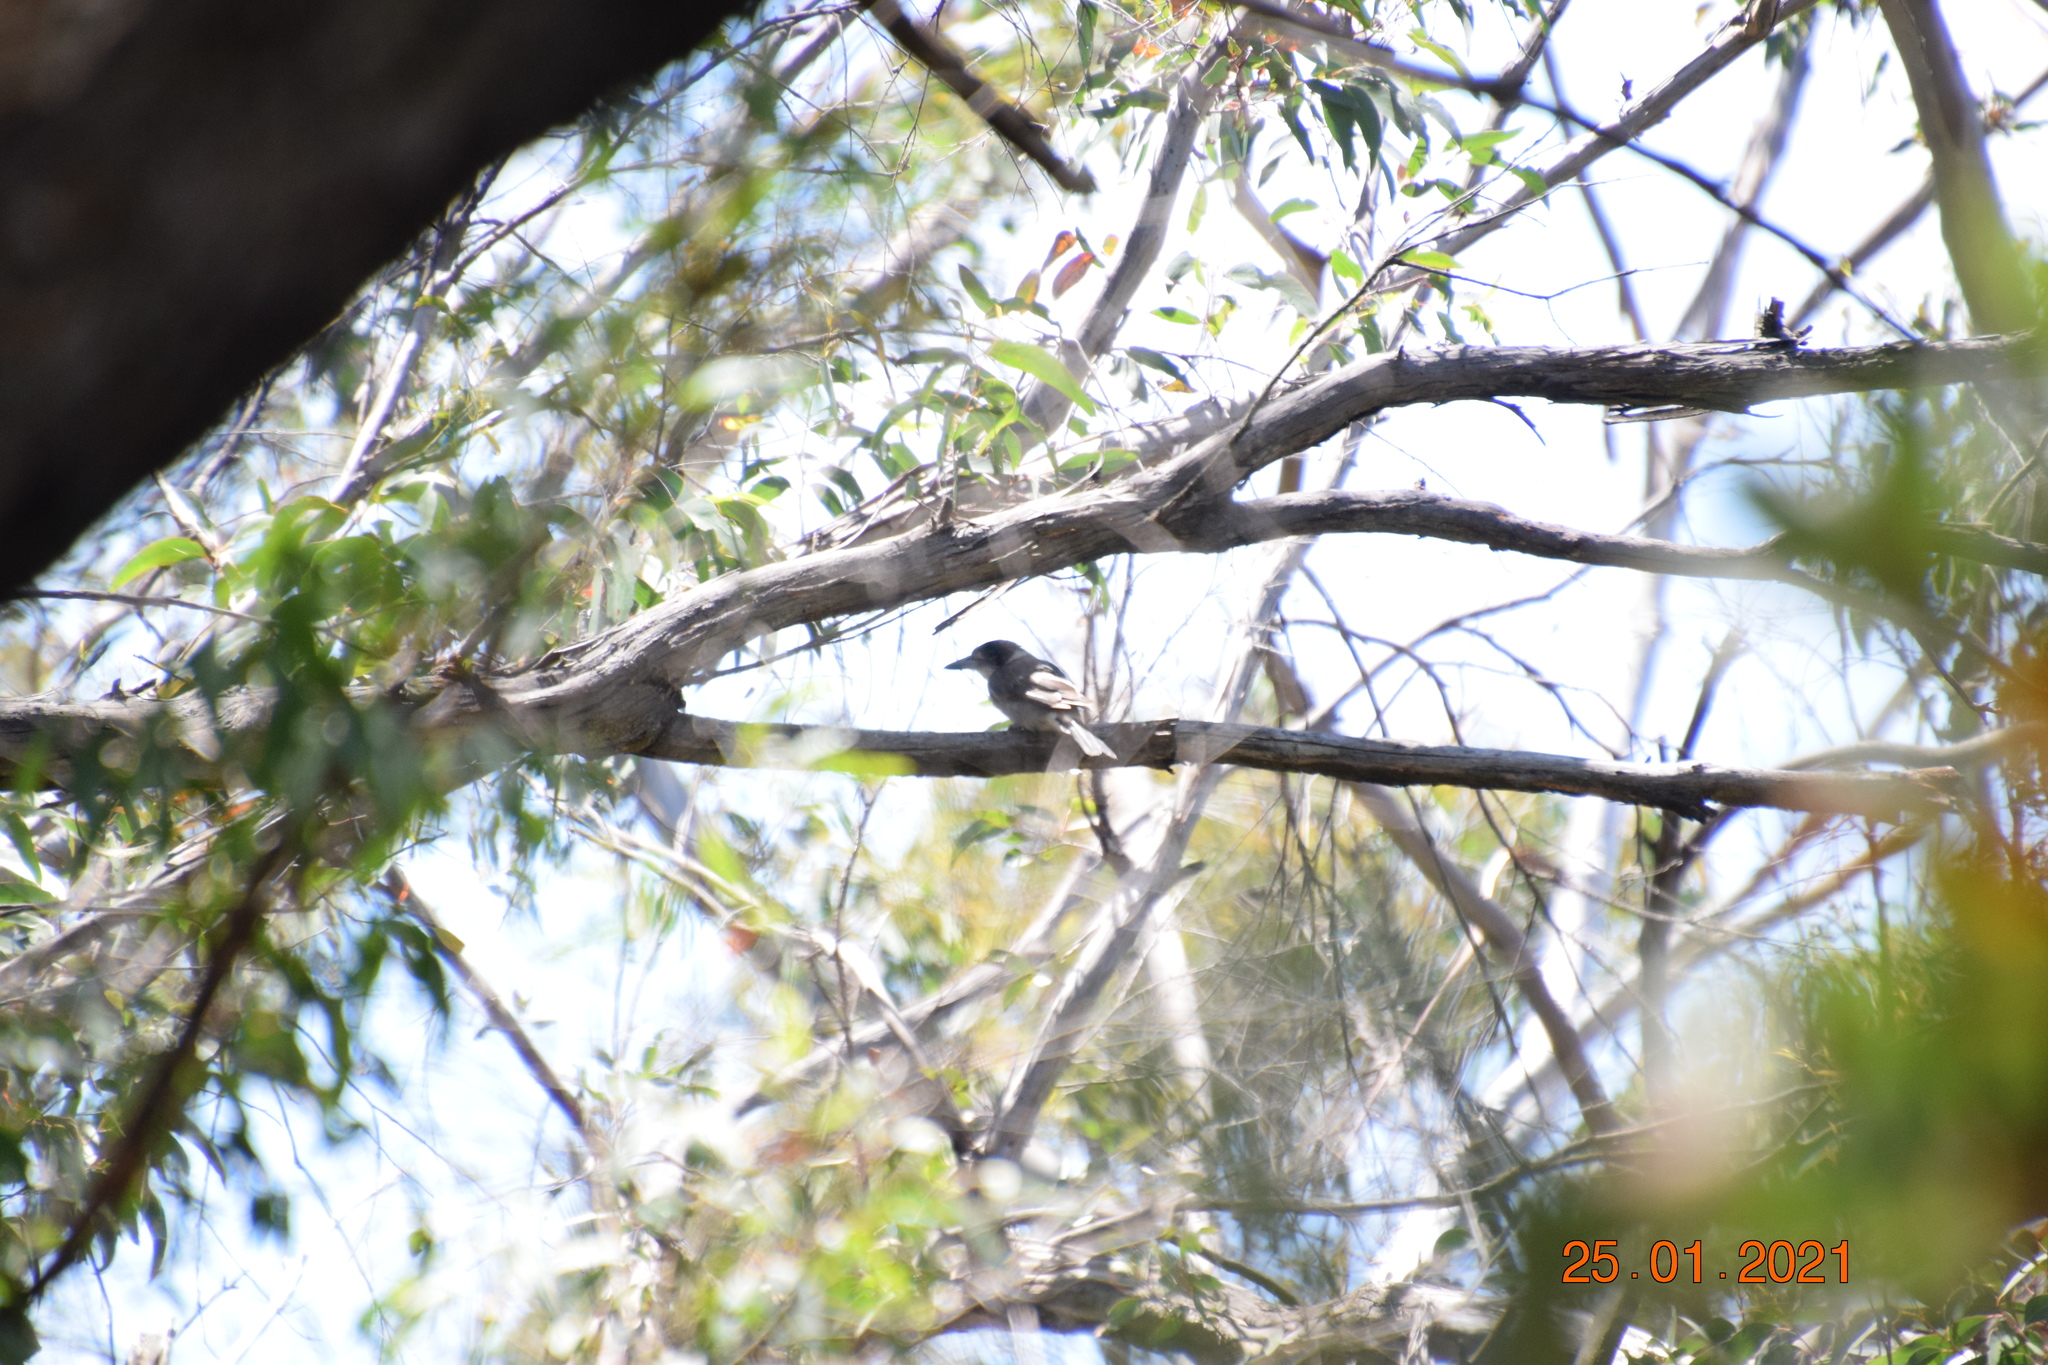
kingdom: Animalia
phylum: Chordata
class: Aves
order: Passeriformes
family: Cracticidae
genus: Cracticus
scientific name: Cracticus torquatus
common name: Grey butcherbird
